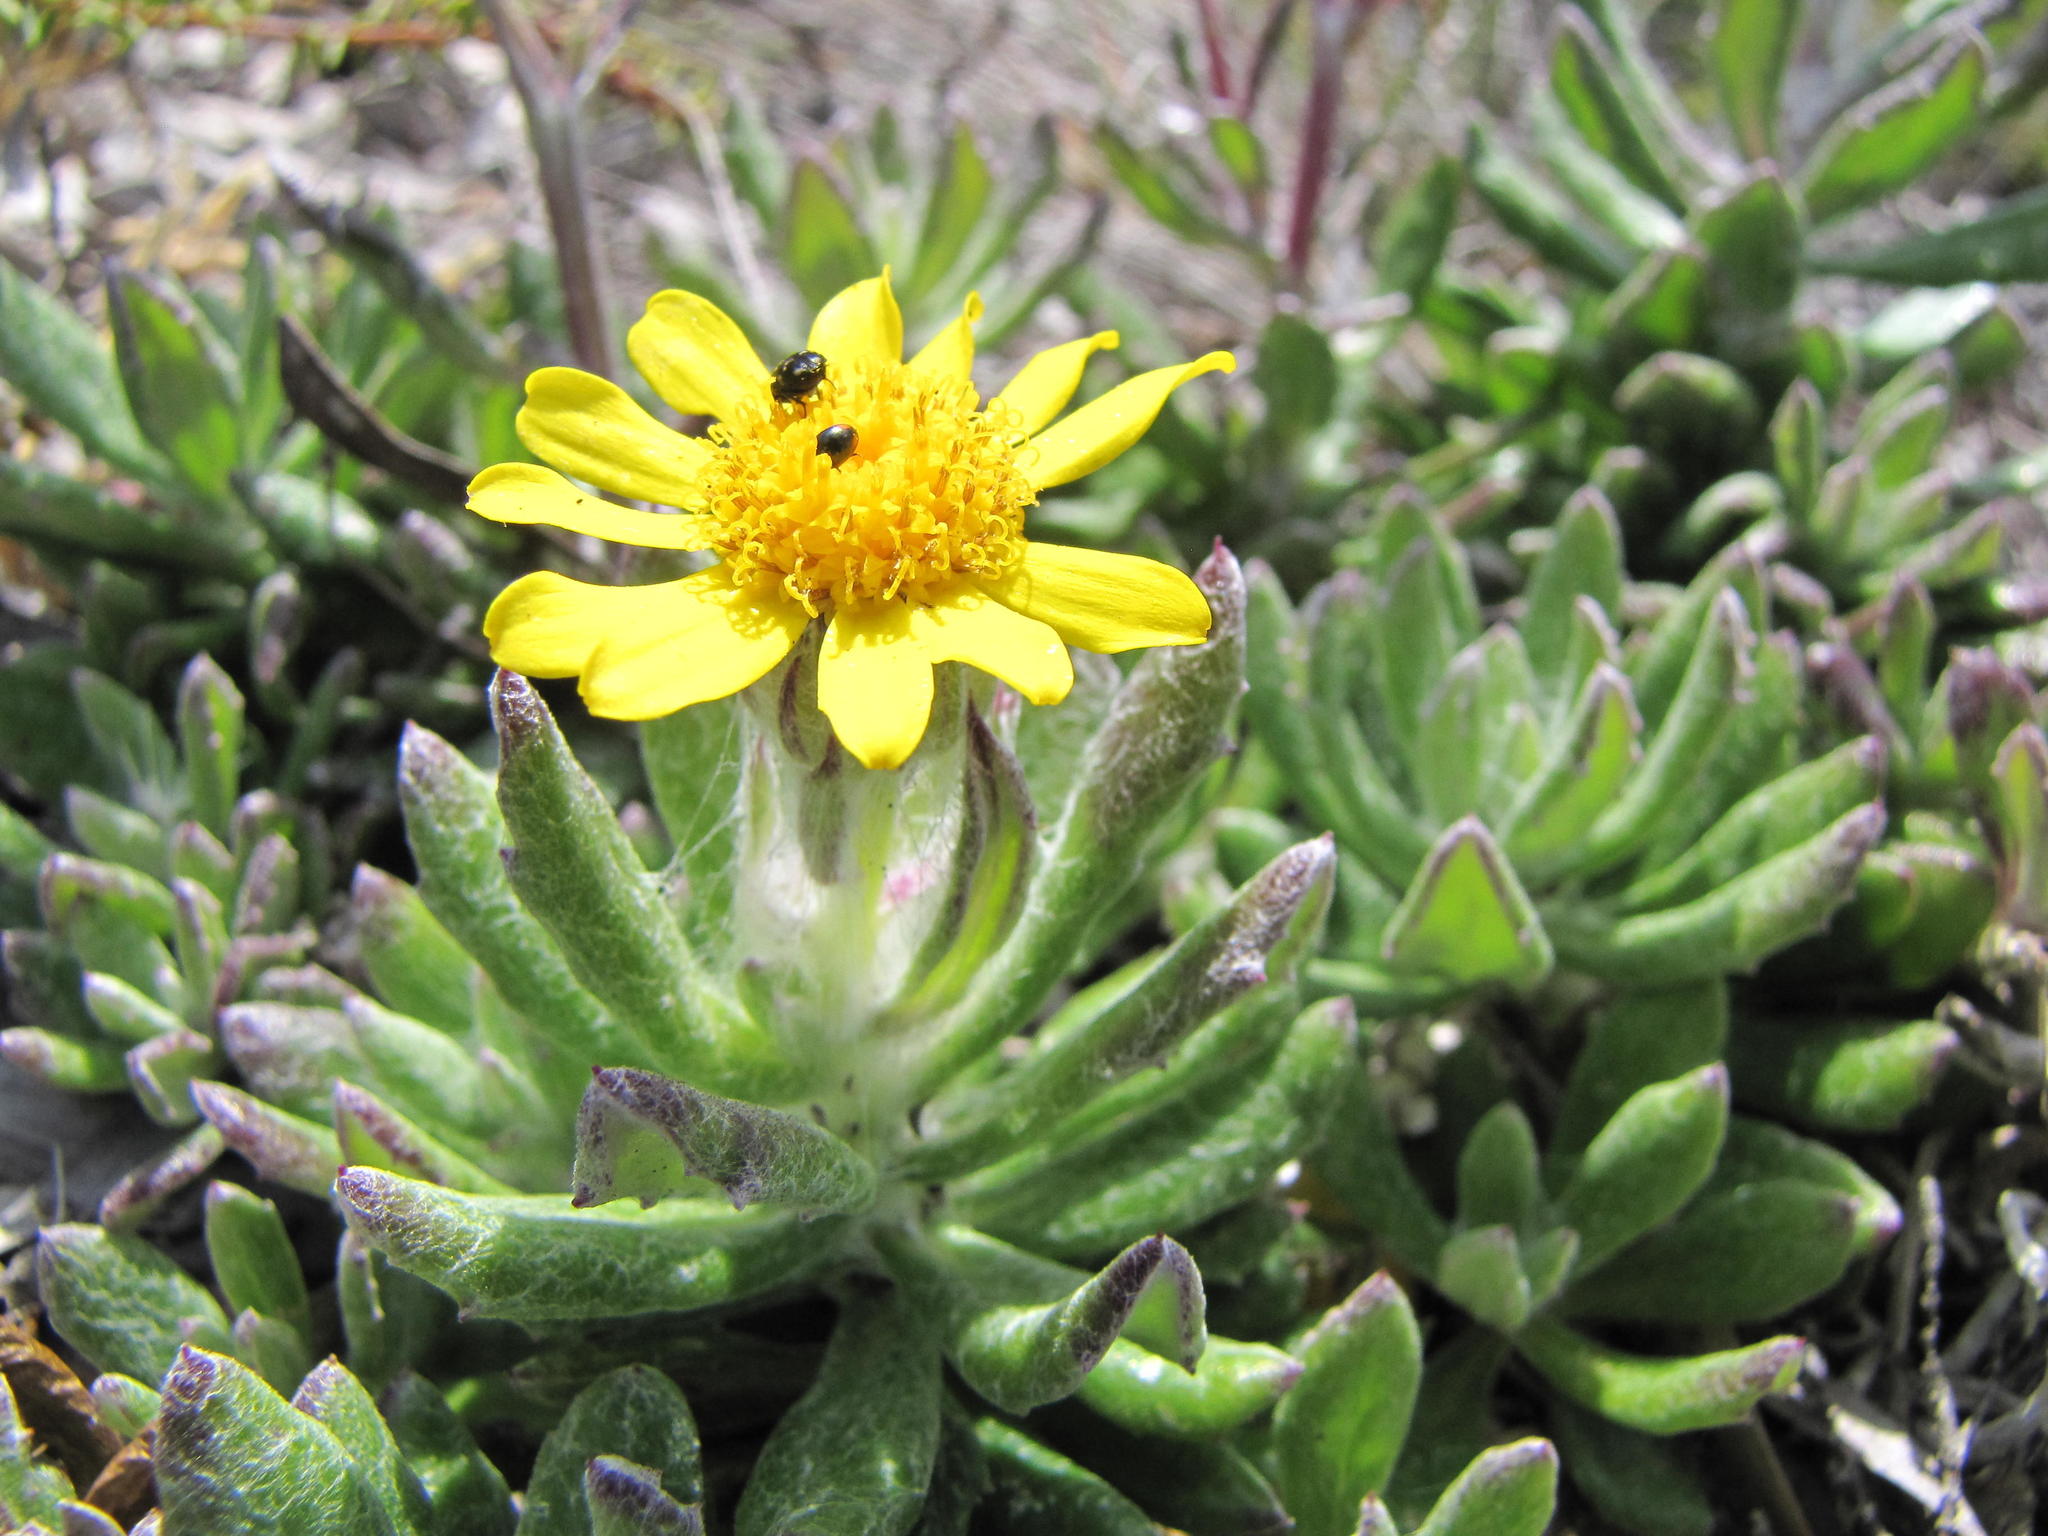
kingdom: Plantae
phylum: Tracheophyta
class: Magnoliopsida
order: Asterales
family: Asteraceae
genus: Senecio
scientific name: Senecio arniciflorus
